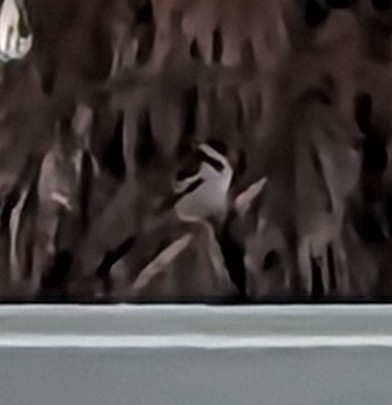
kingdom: Animalia
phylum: Chordata
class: Aves
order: Passeriformes
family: Viduidae
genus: Vidua
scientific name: Vidua macroura
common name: Pin-tailed whydah
